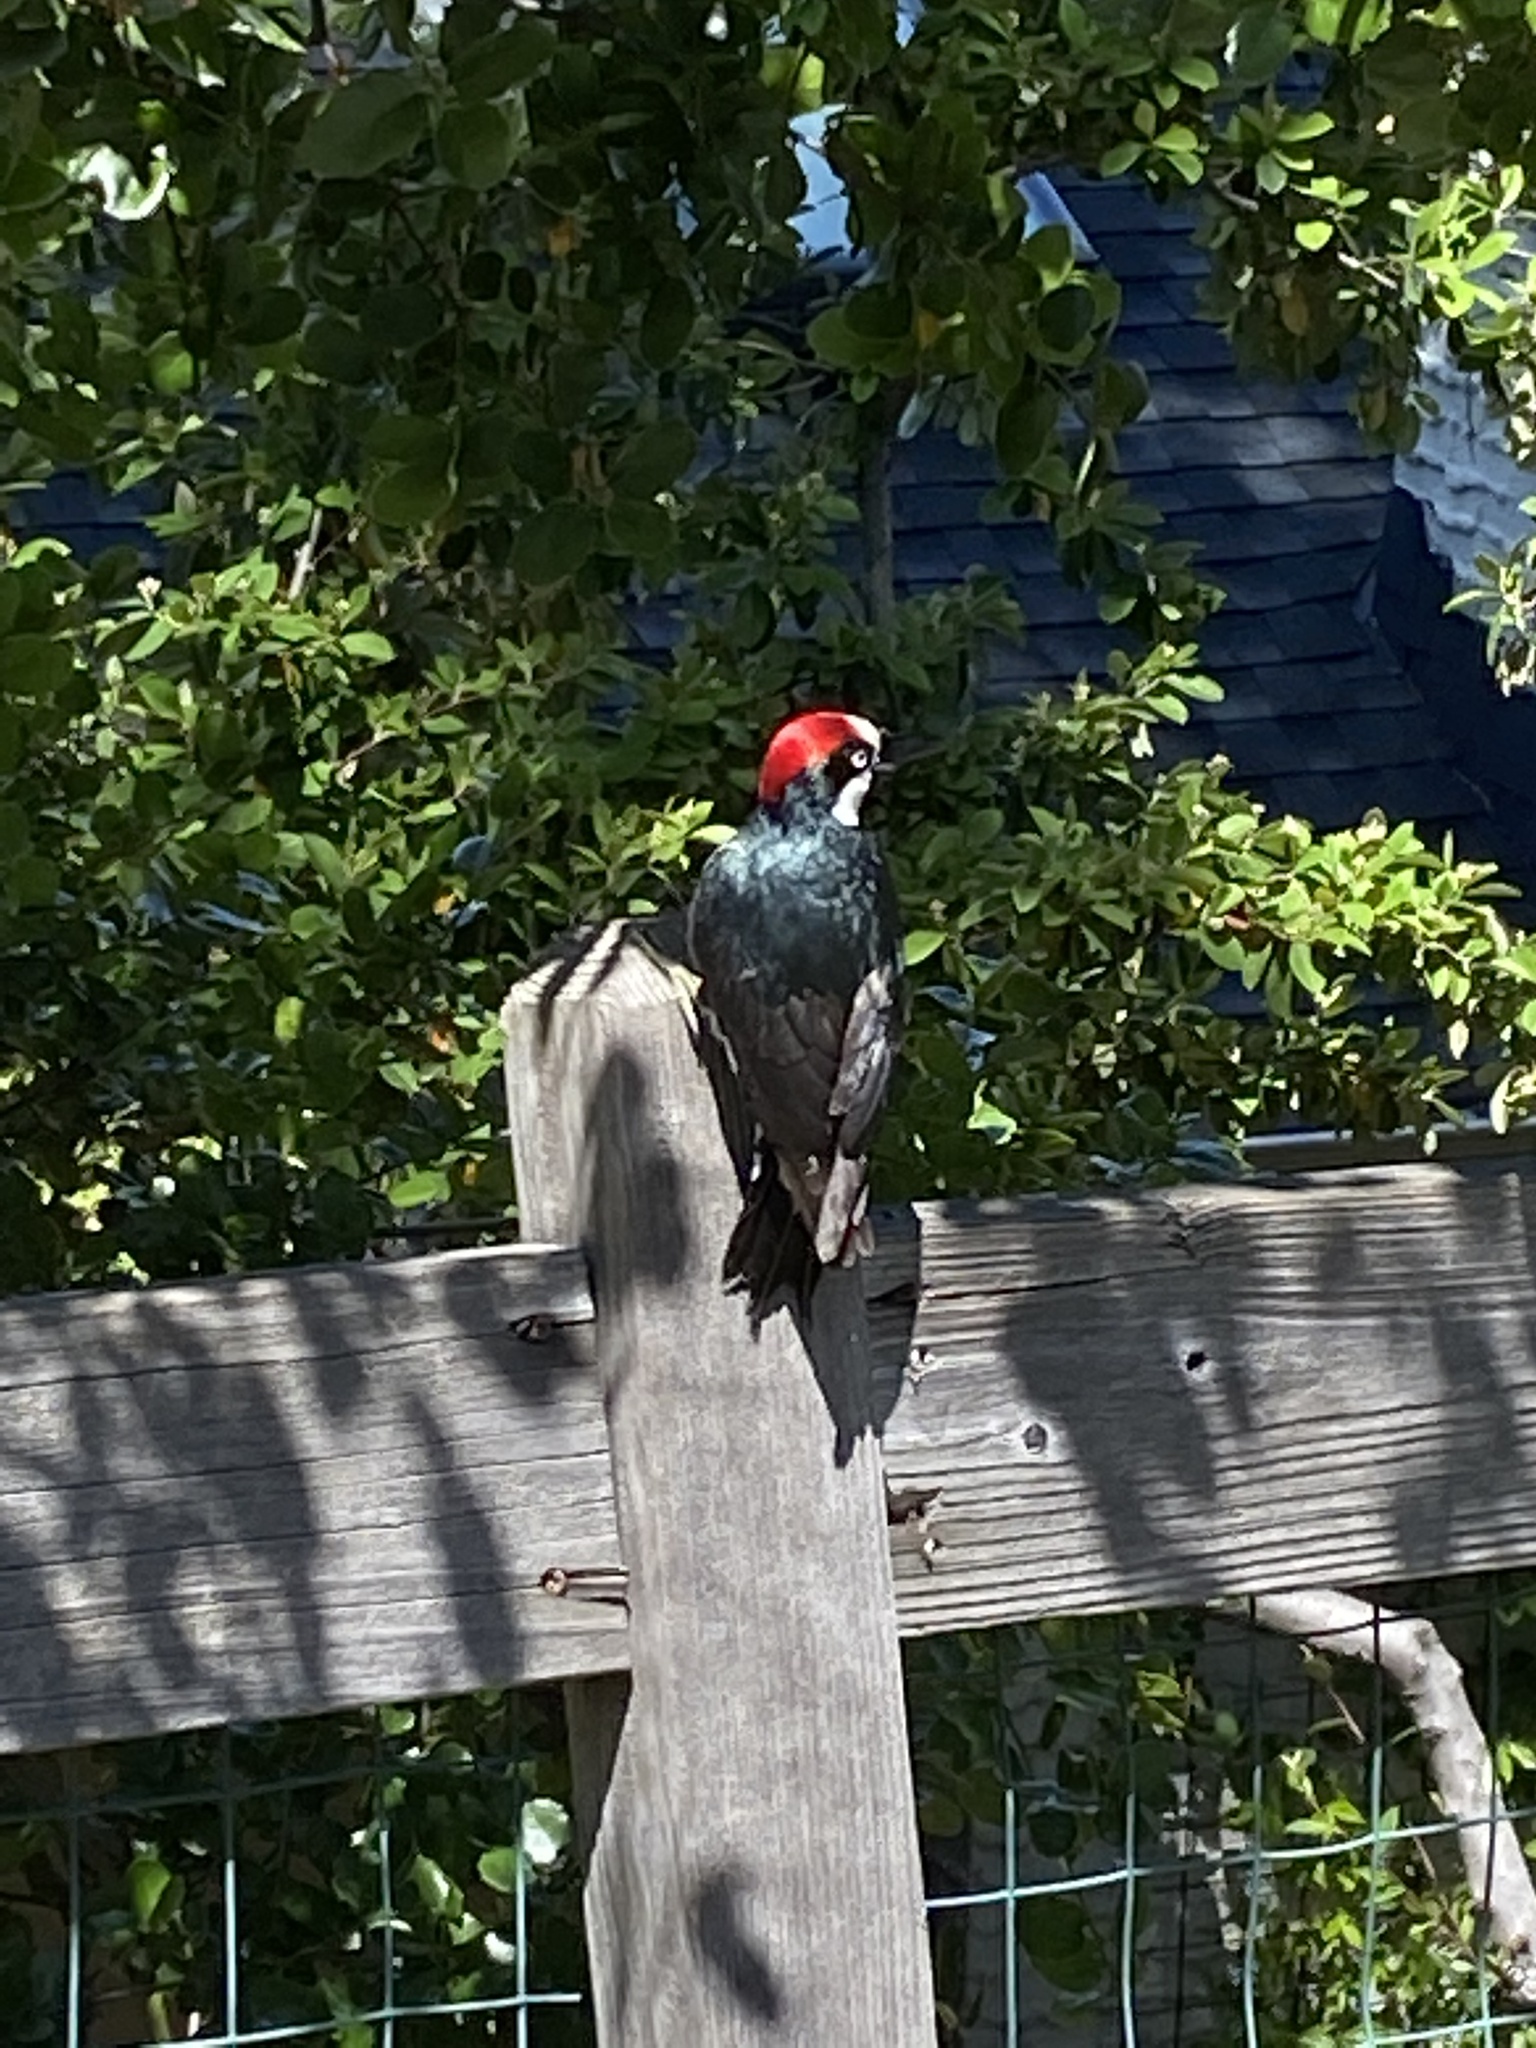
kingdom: Animalia
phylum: Chordata
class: Aves
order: Piciformes
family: Picidae
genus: Melanerpes
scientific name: Melanerpes formicivorus
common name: Acorn woodpecker
